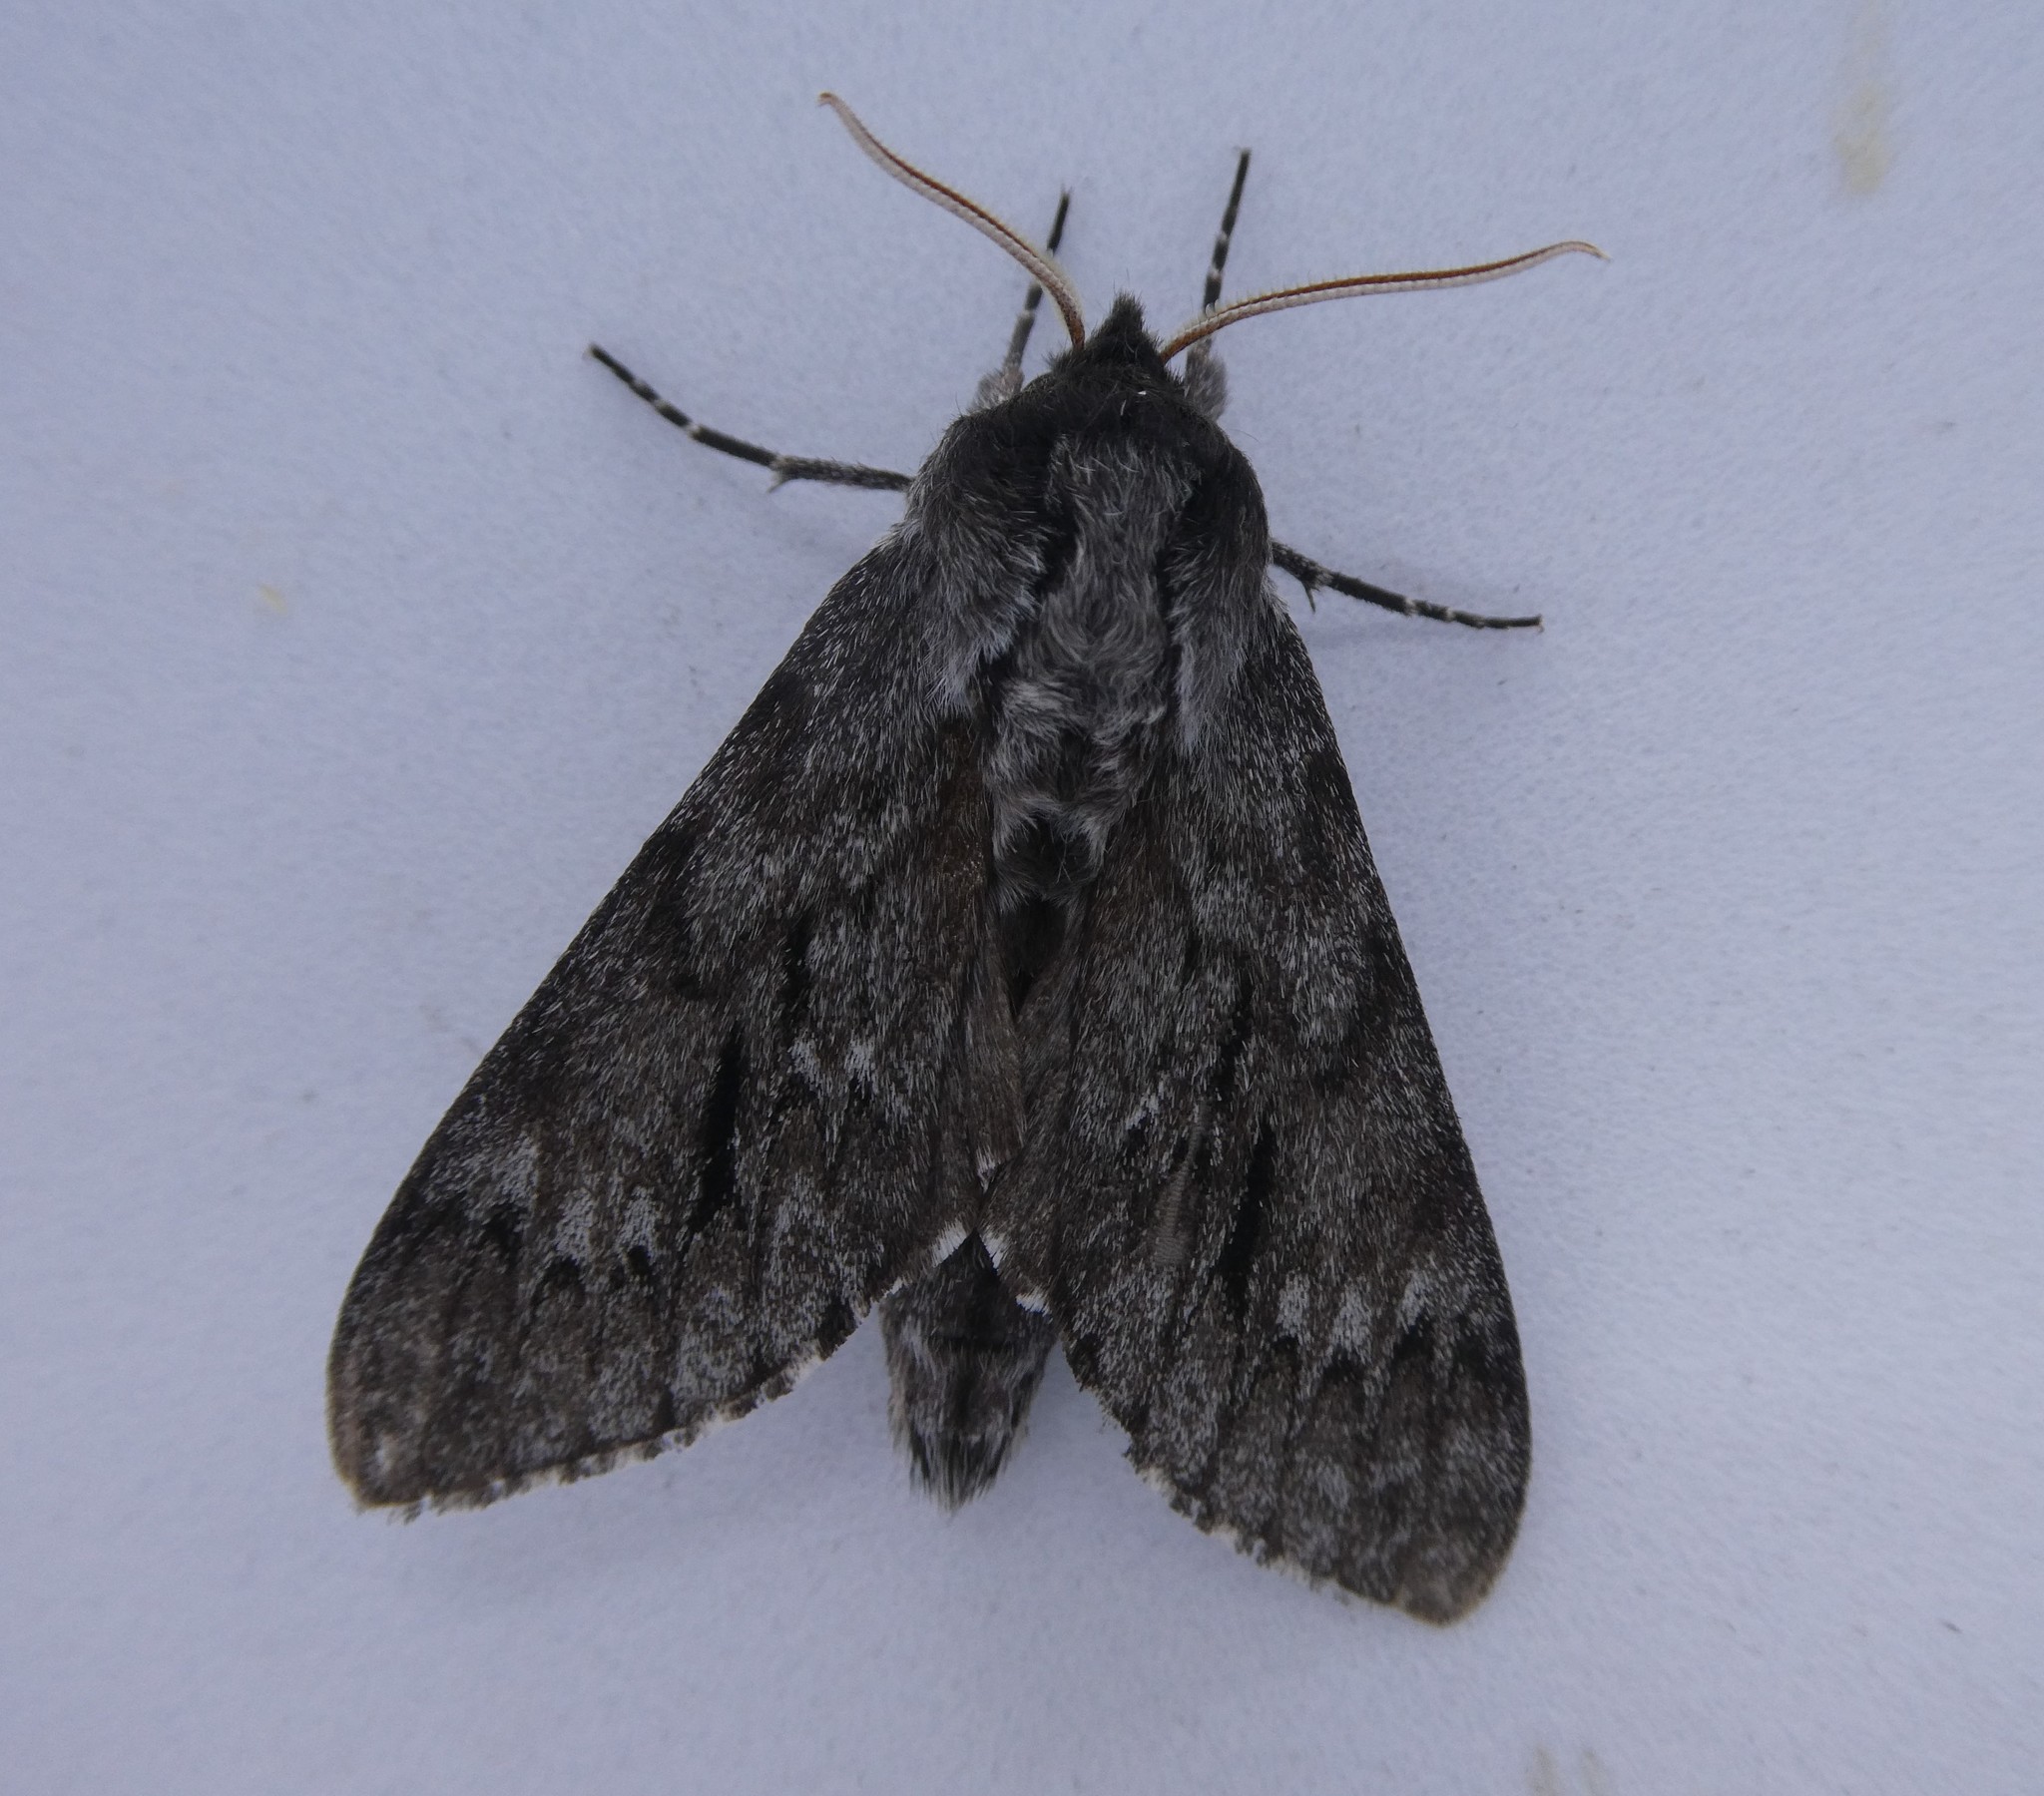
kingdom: Animalia
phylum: Arthropoda
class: Insecta
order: Lepidoptera
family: Sphingidae
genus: Lapara
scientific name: Lapara bombycoides
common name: Northern pine sphinx
